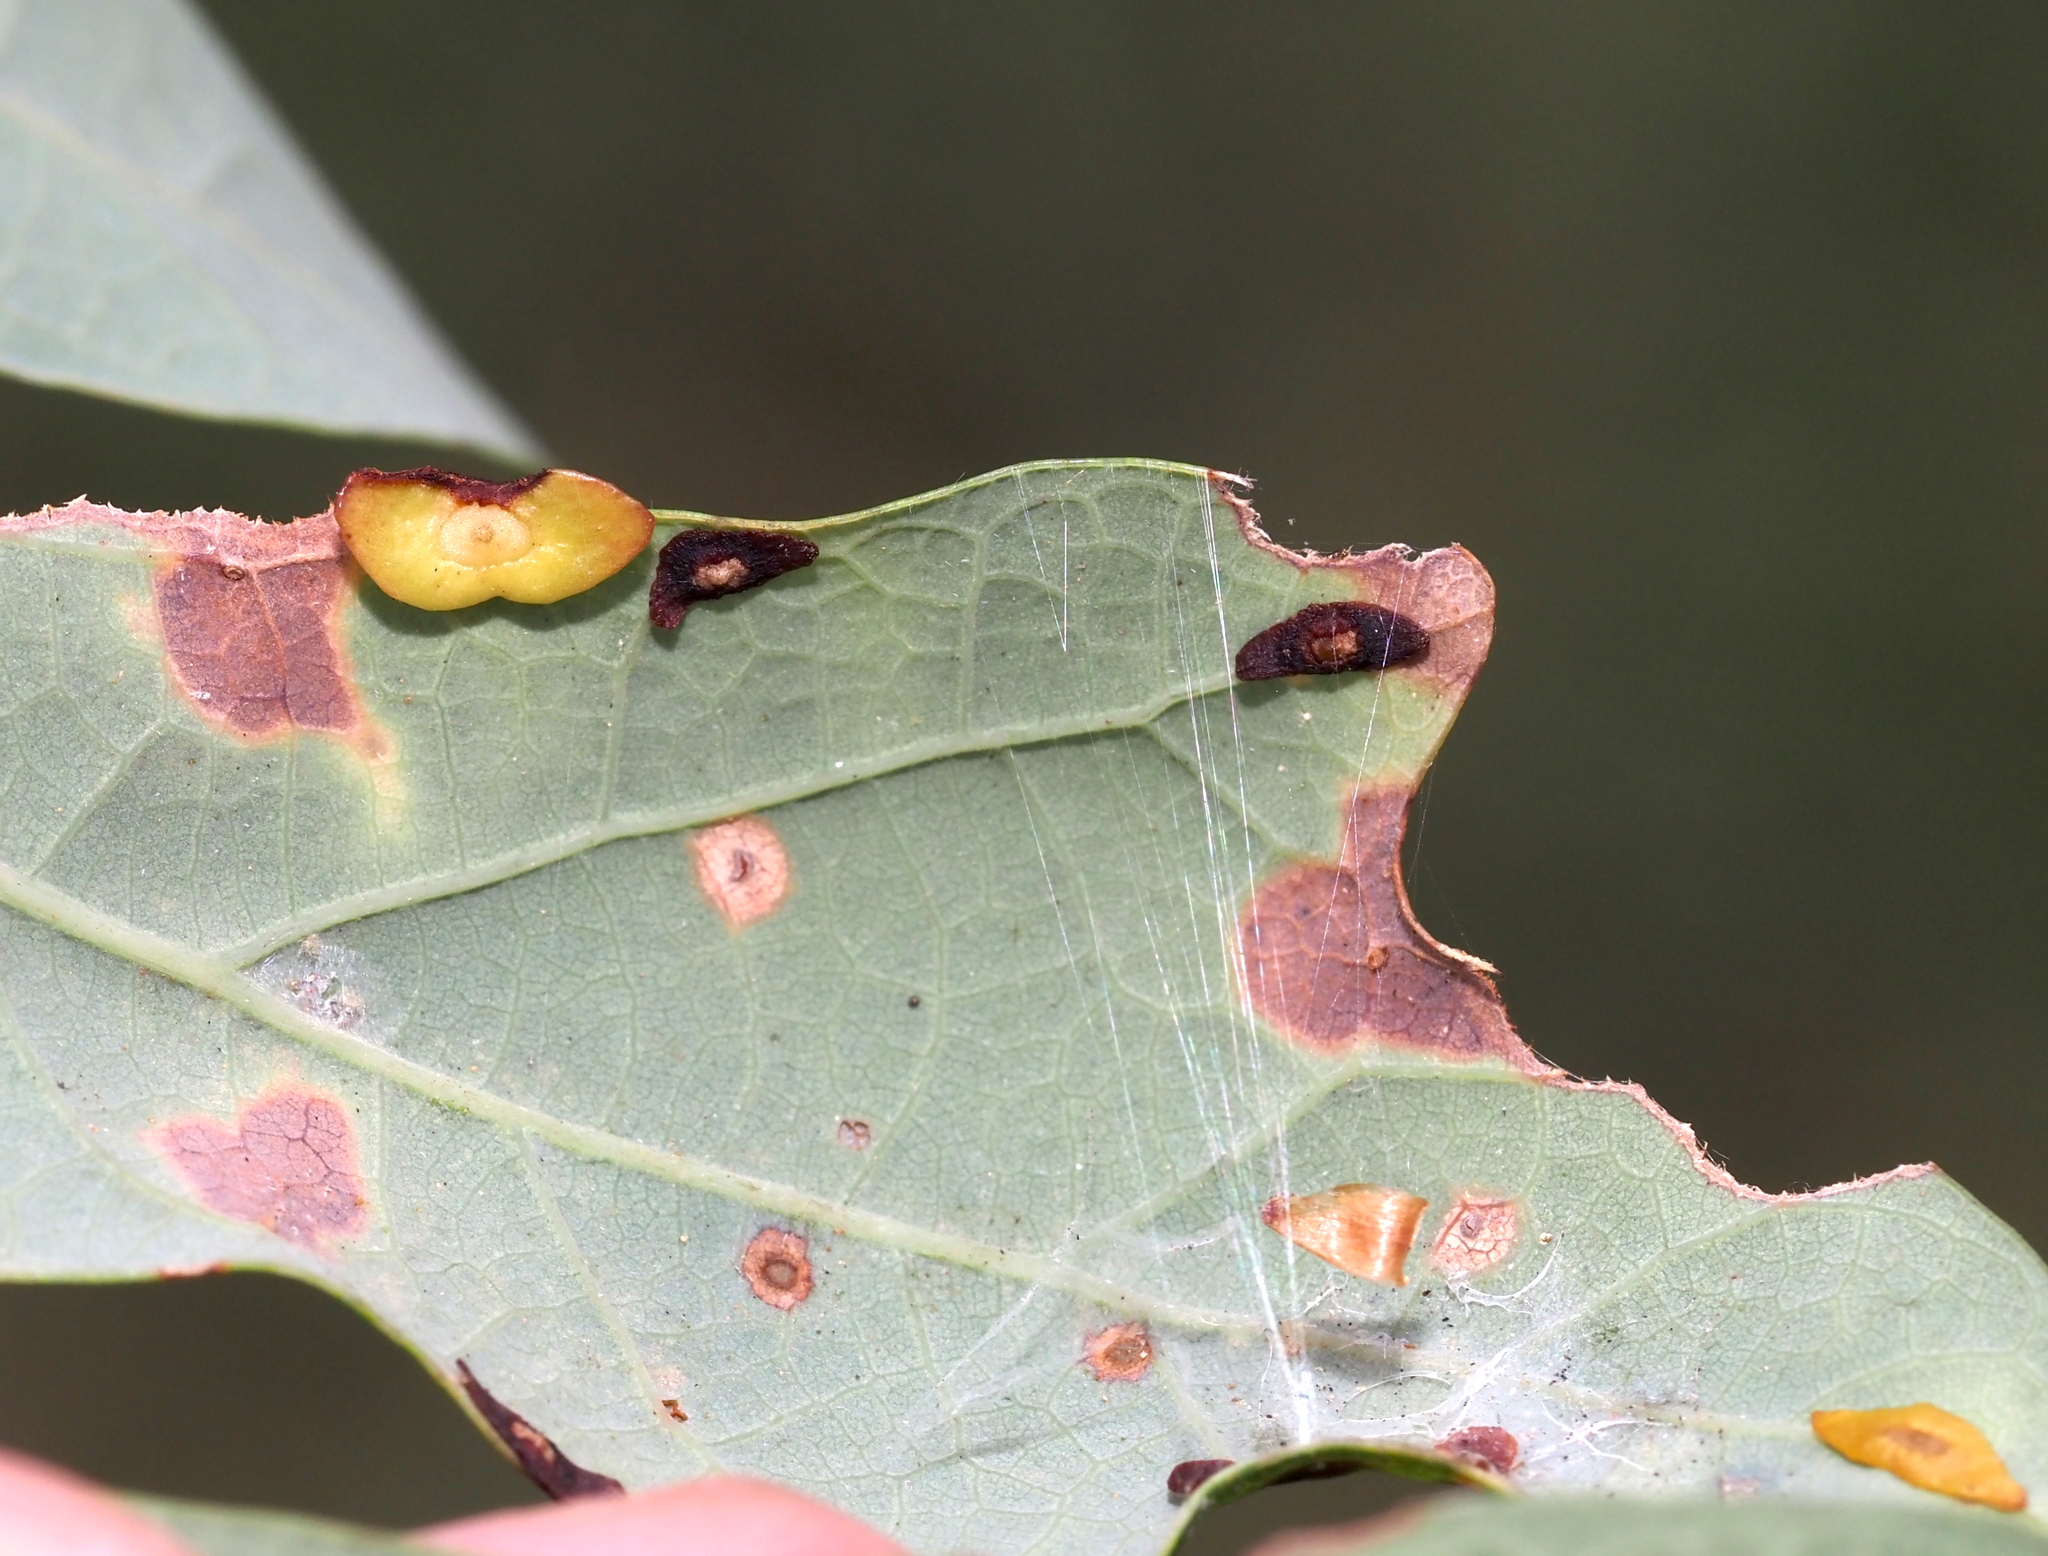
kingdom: Animalia
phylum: Arthropoda
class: Insecta
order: Hymenoptera
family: Cynipidae
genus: Phylloteras
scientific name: Phylloteras
